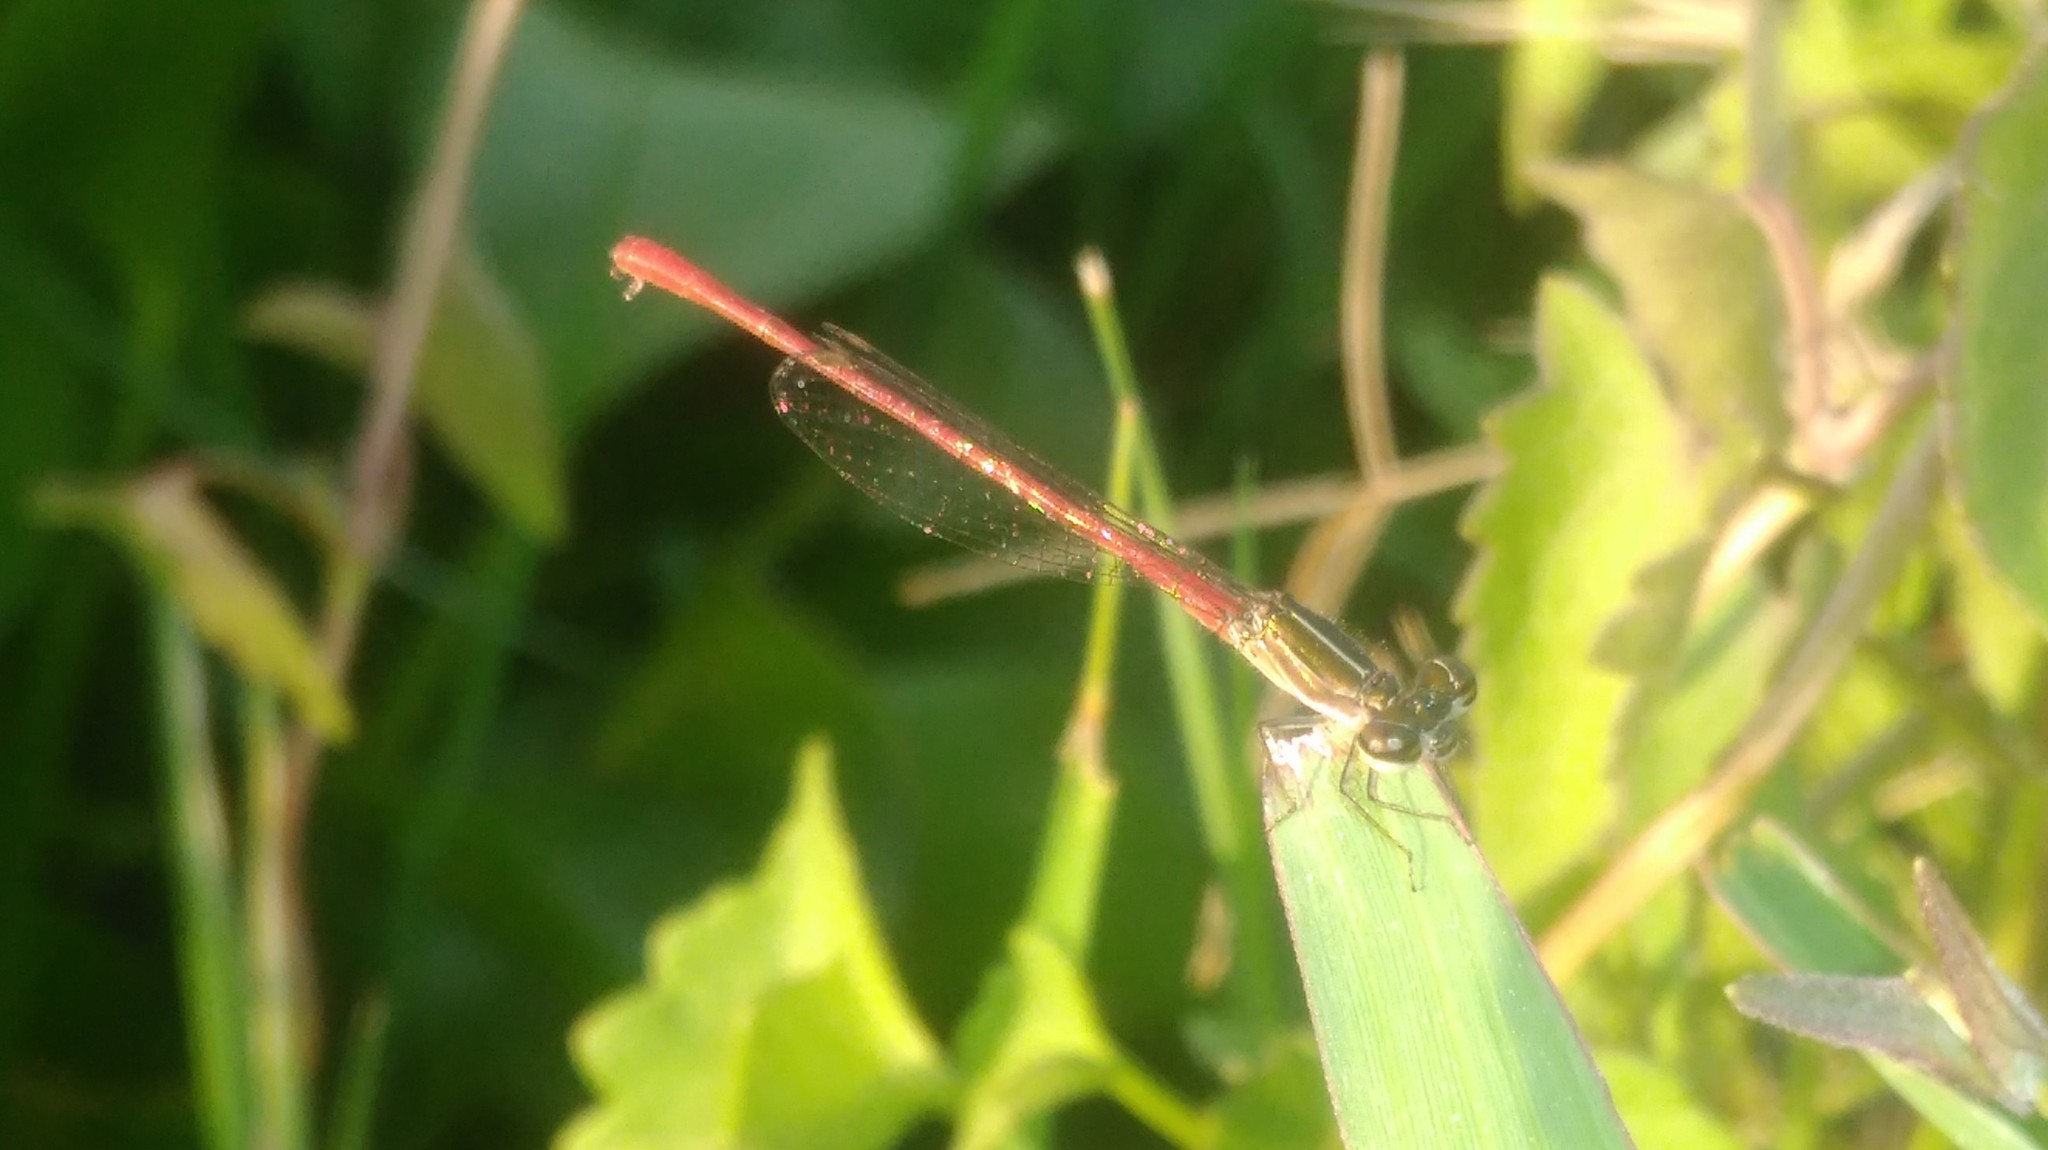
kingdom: Animalia
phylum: Arthropoda
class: Insecta
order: Odonata
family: Coenagrionidae
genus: Telebasis
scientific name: Telebasis willinki
